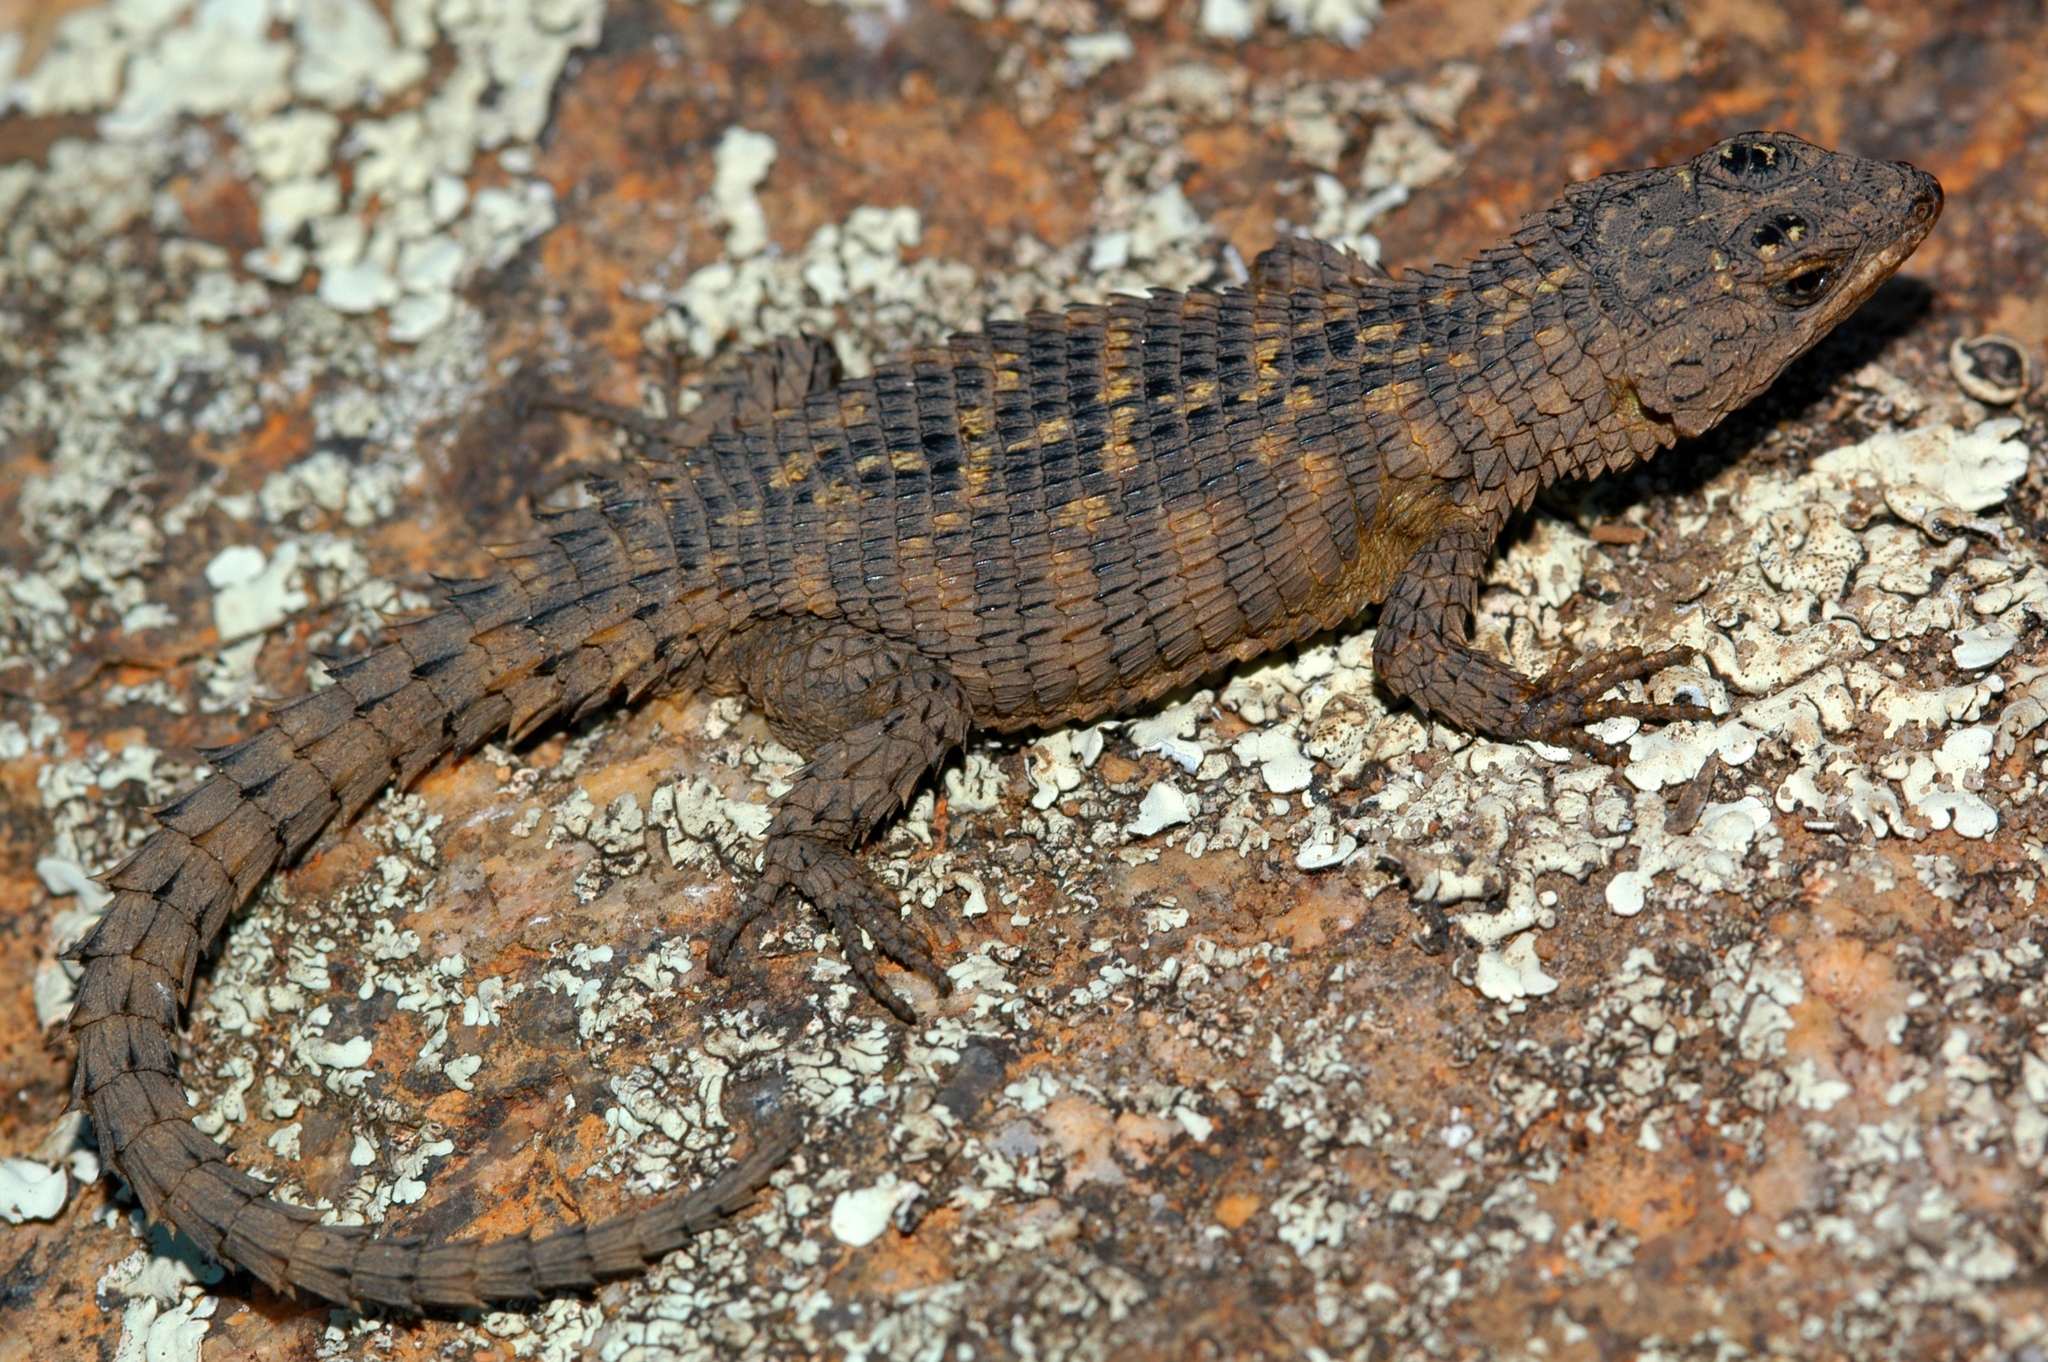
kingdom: Animalia
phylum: Chordata
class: Squamata
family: Cordylidae
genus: Cordylus
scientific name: Cordylus imkeae
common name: Rooiberg girdled lizard
